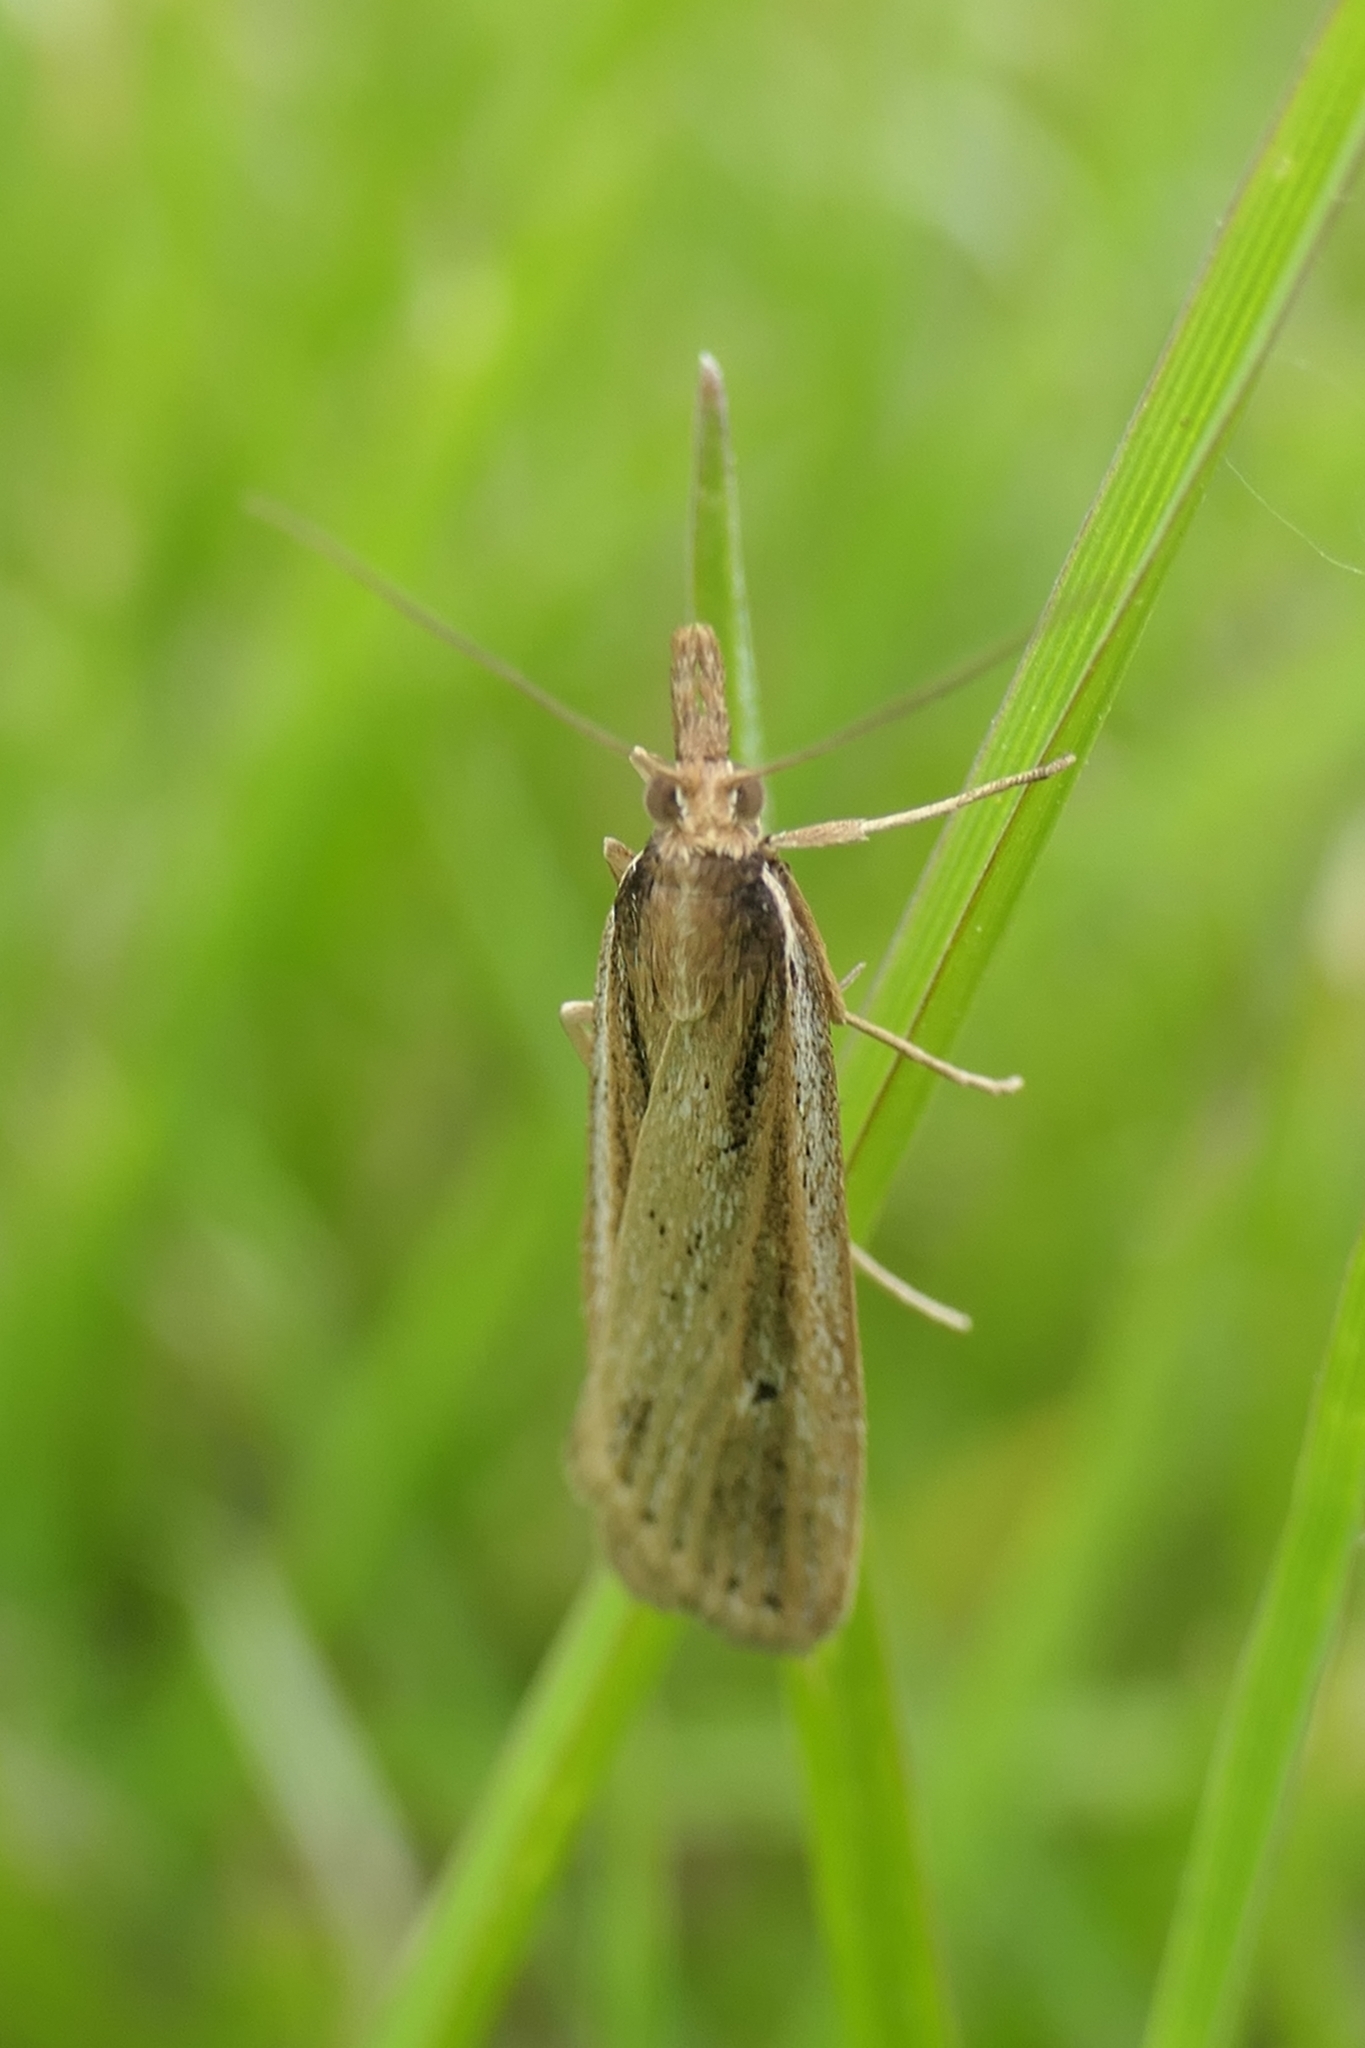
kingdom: Animalia
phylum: Arthropoda
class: Insecta
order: Lepidoptera
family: Crambidae
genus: Eudonia
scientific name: Eudonia sabulosella
